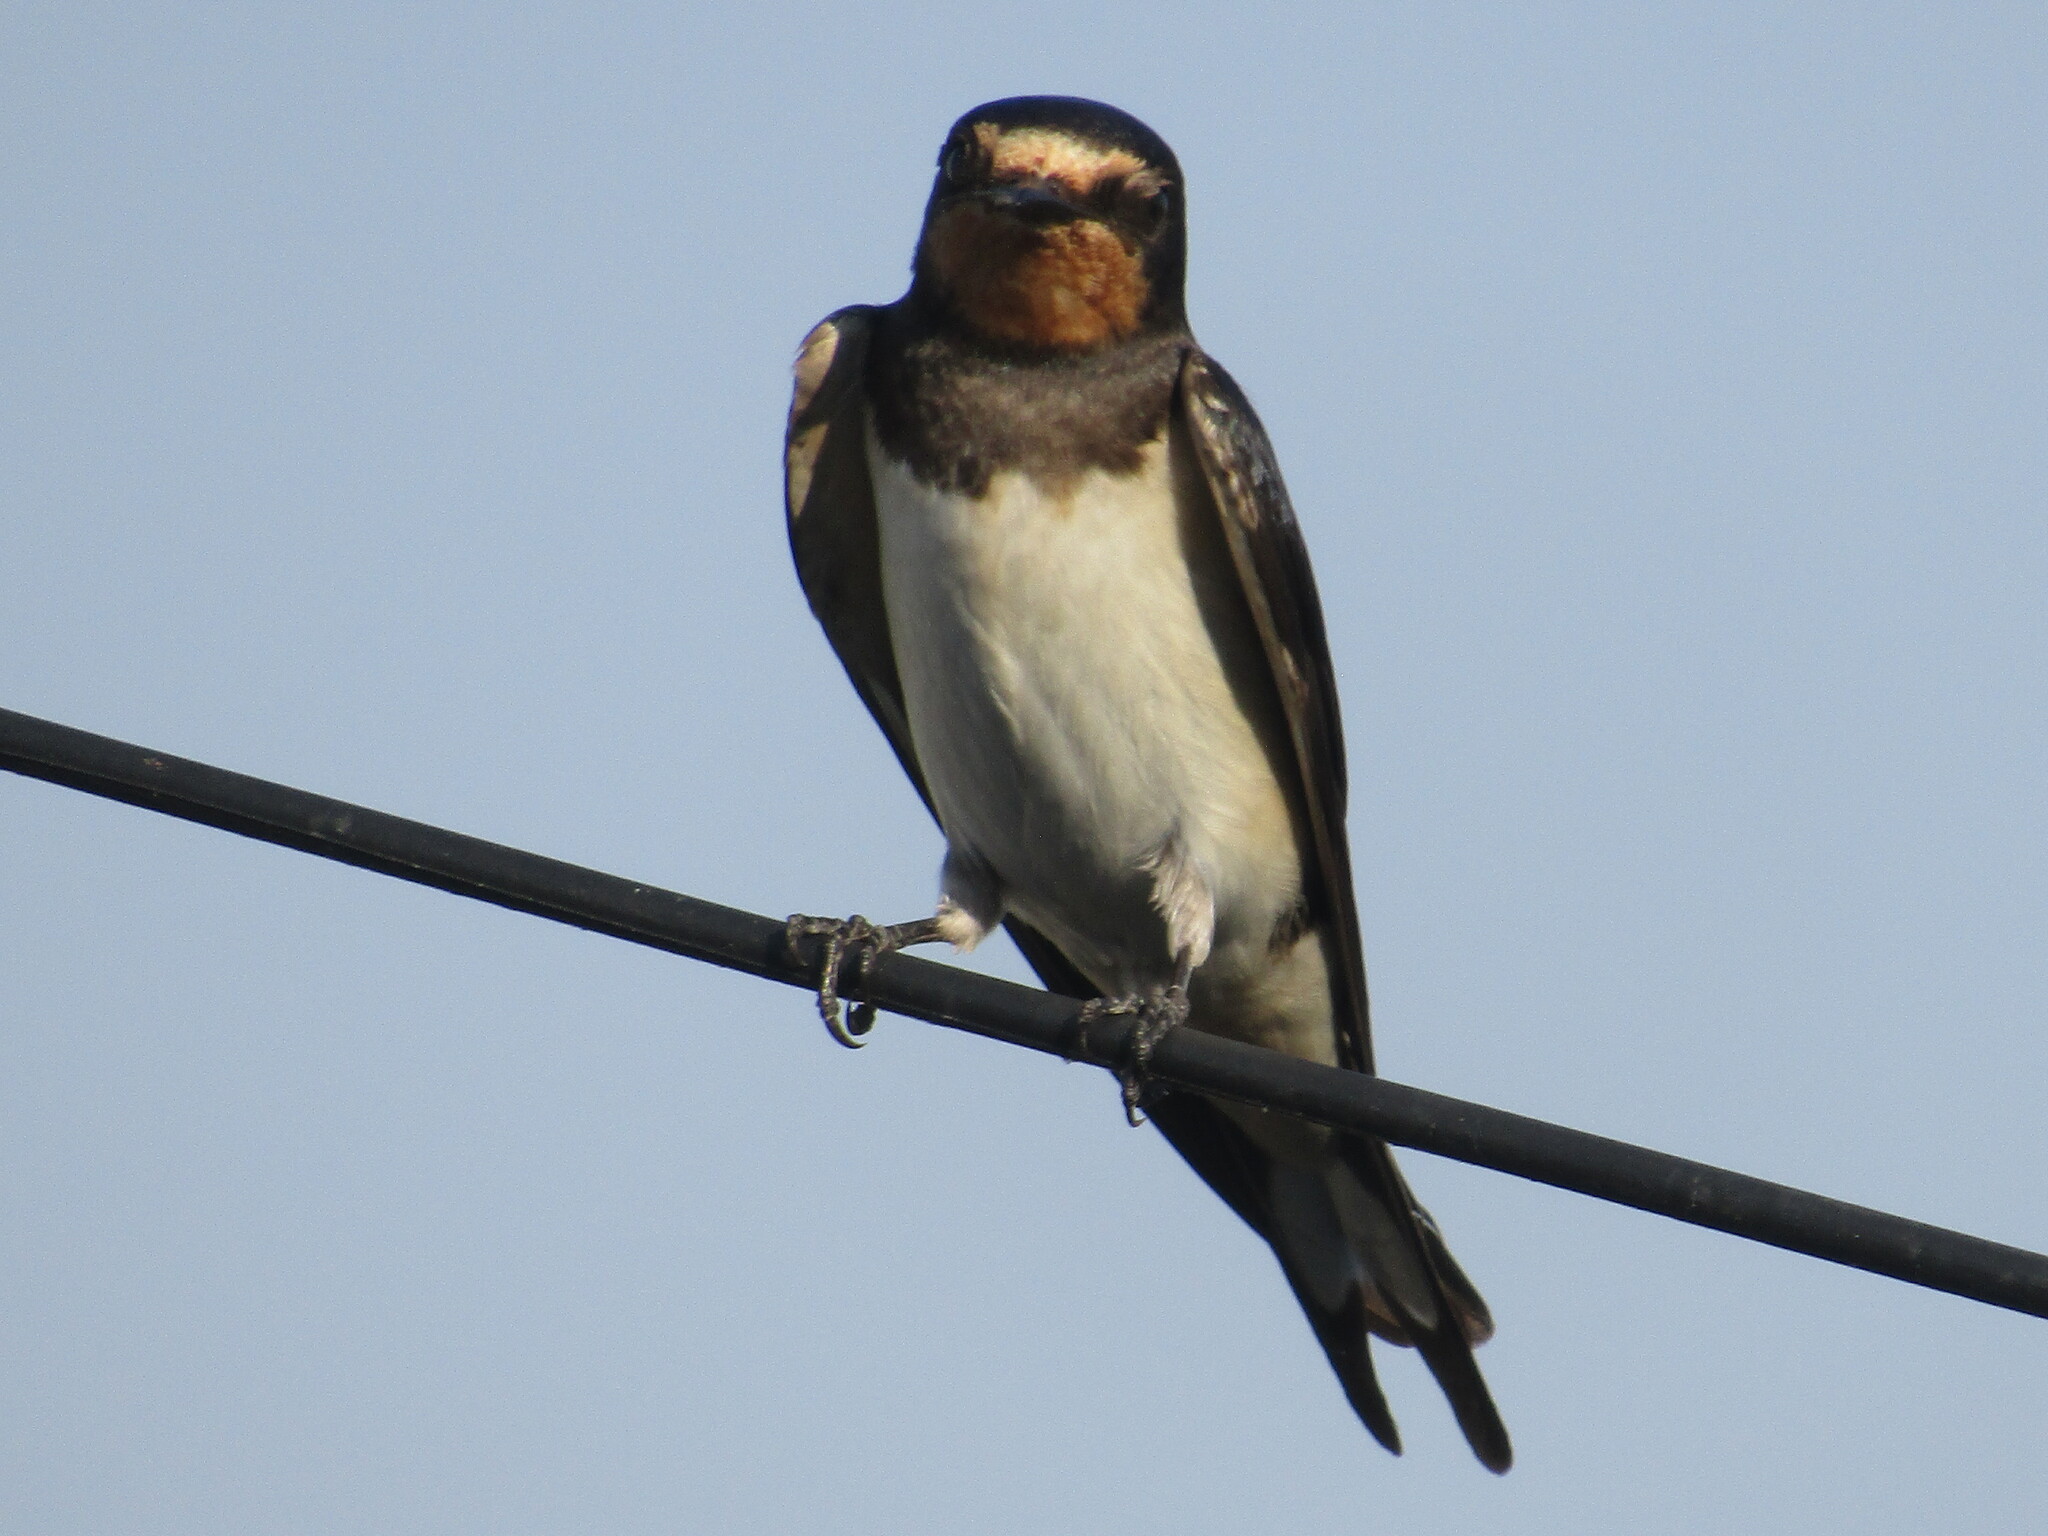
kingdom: Animalia
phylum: Chordata
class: Aves
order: Passeriformes
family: Hirundinidae
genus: Hirundo
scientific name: Hirundo rustica
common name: Barn swallow
